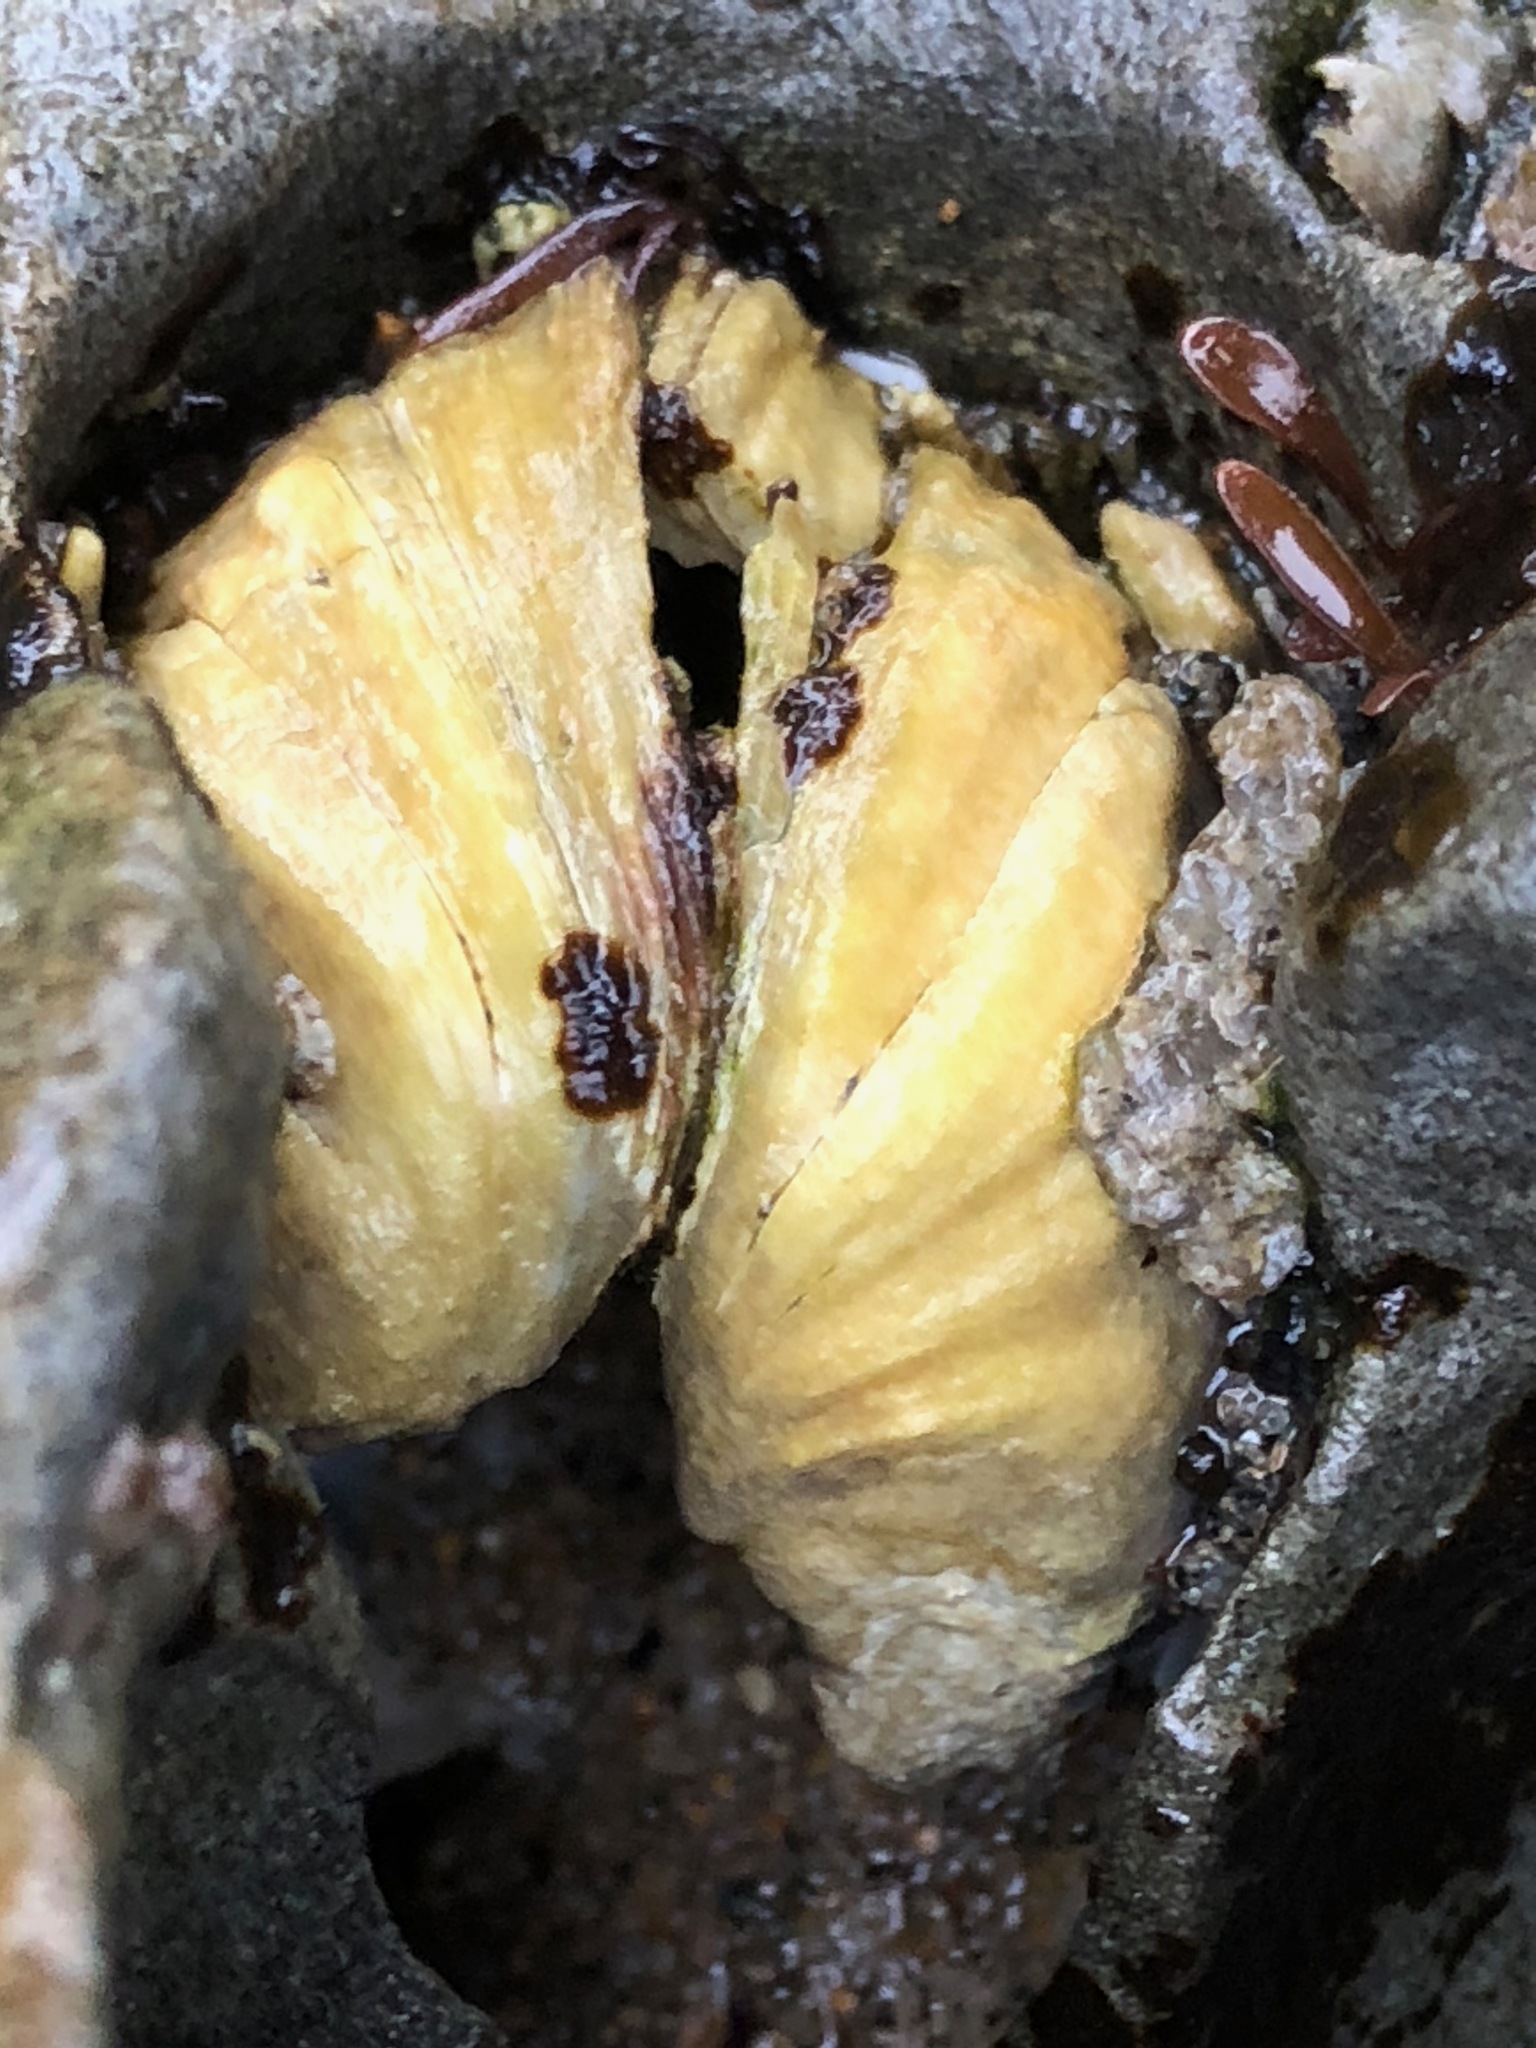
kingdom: Animalia
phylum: Mollusca
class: Bivalvia
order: Venerida
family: Veneridae
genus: Petricola
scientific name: Petricola carditoides
